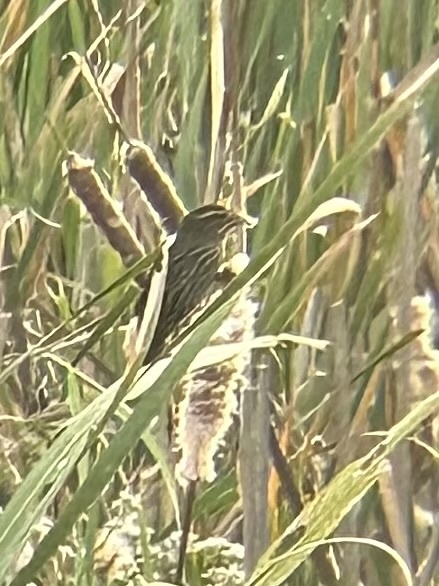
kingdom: Animalia
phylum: Chordata
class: Aves
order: Passeriformes
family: Icteridae
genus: Agelaius
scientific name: Agelaius phoeniceus
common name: Red-winged blackbird
